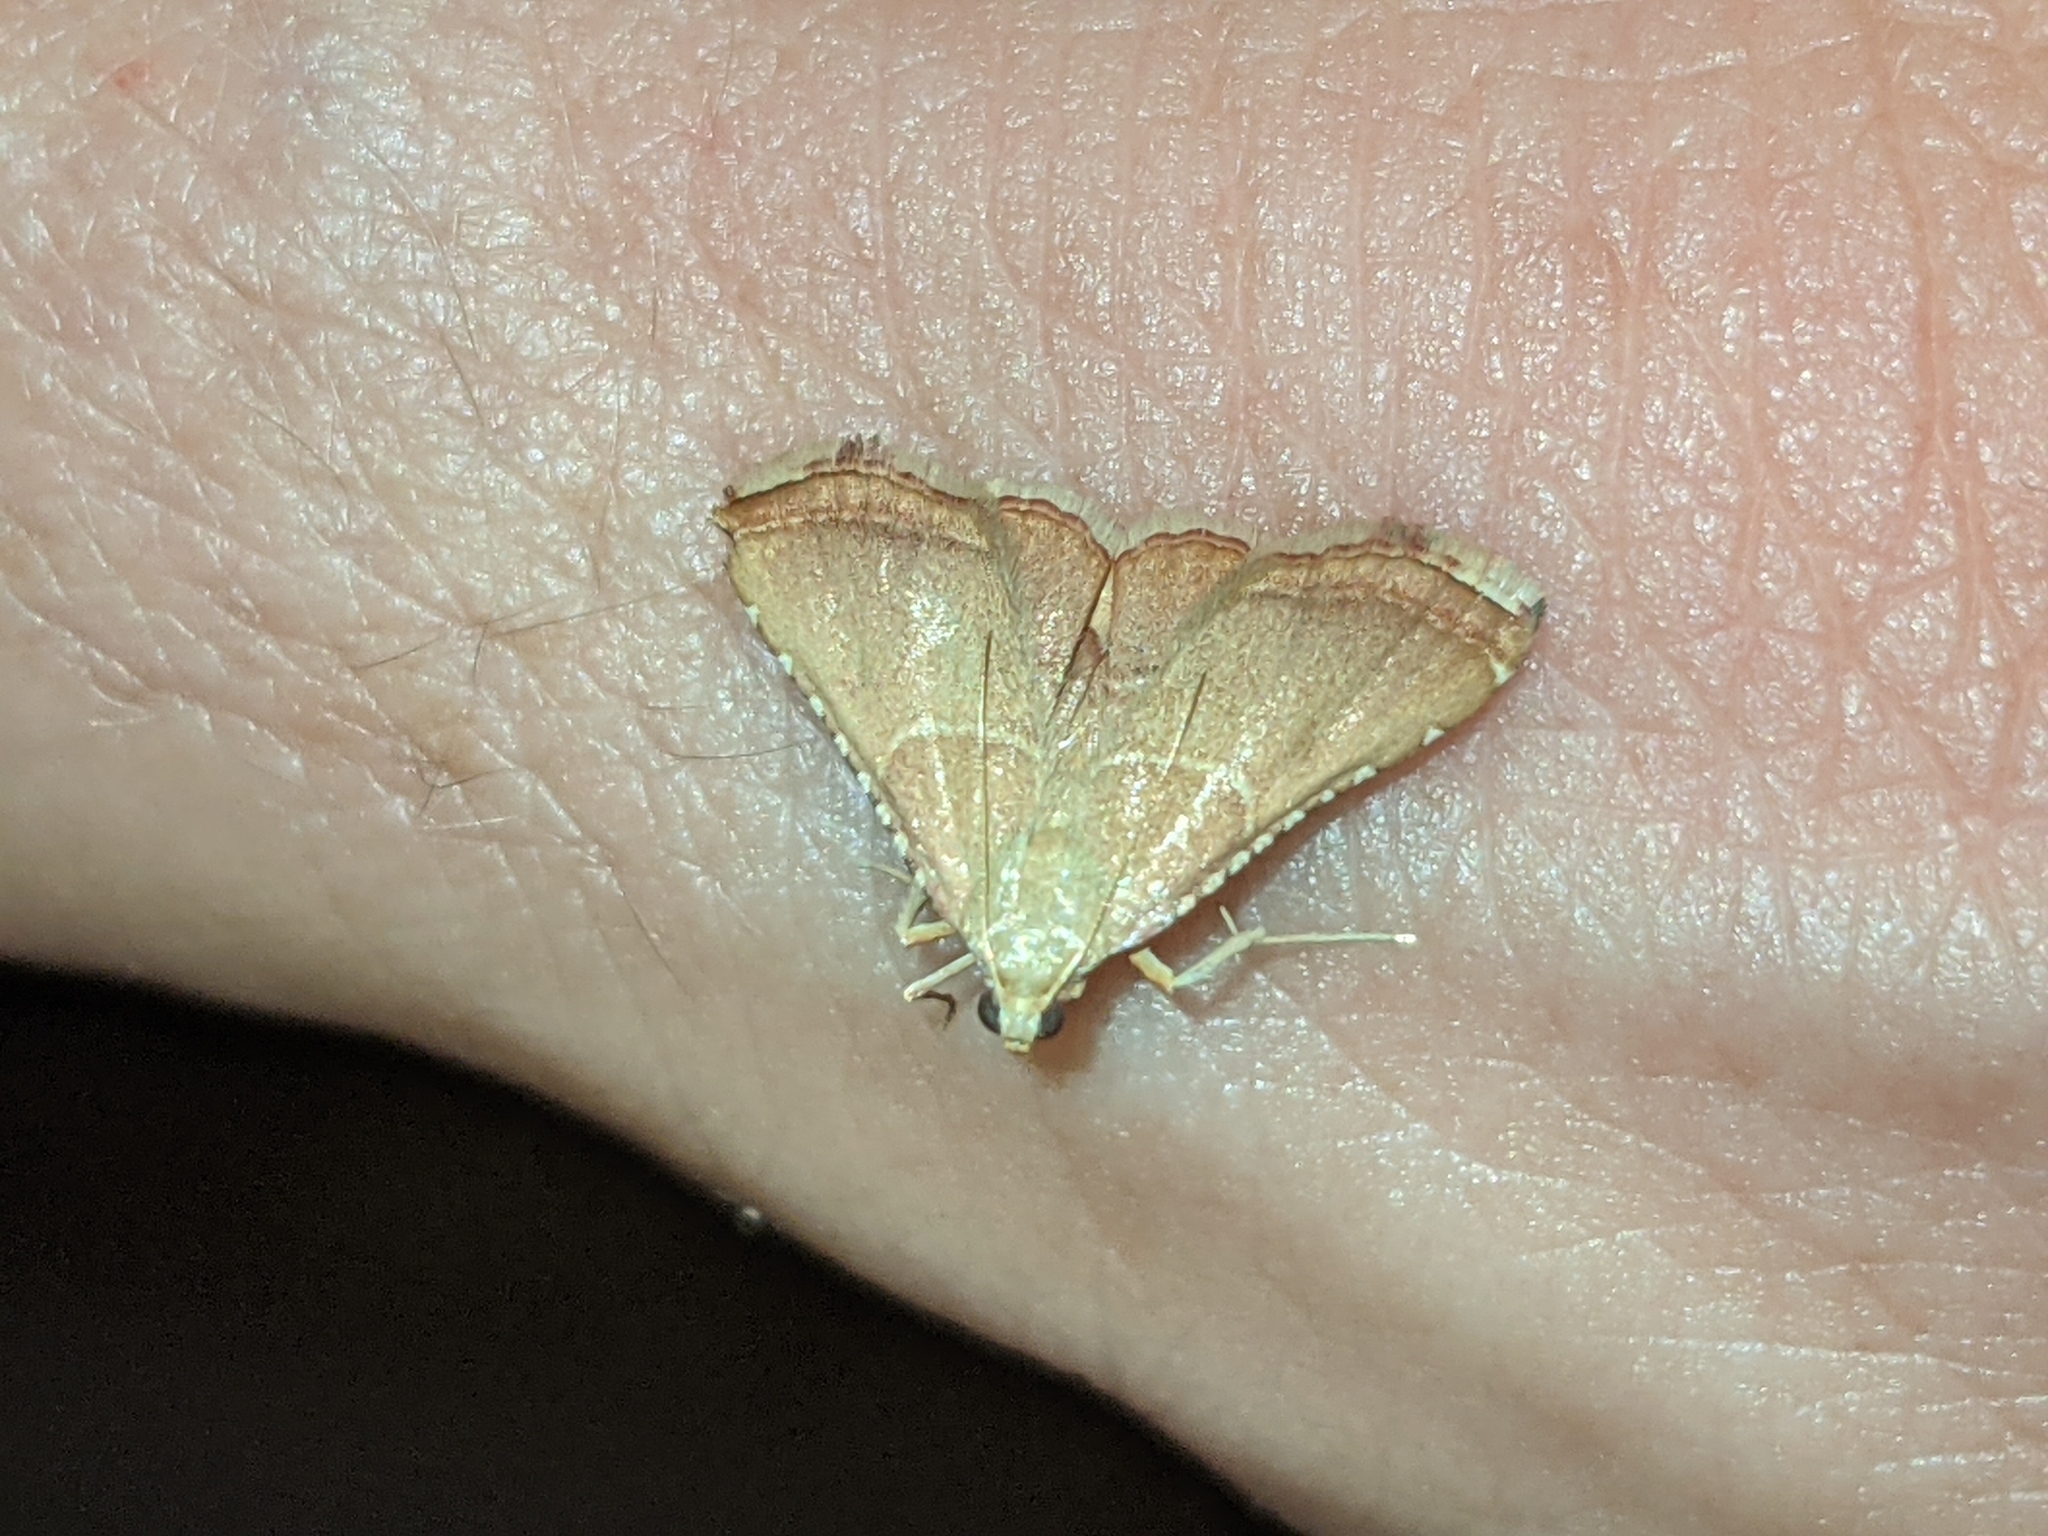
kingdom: Animalia
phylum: Arthropoda
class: Insecta
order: Lepidoptera
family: Pyralidae
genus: Endotricha
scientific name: Endotricha flammealis
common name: Rosy tabby
